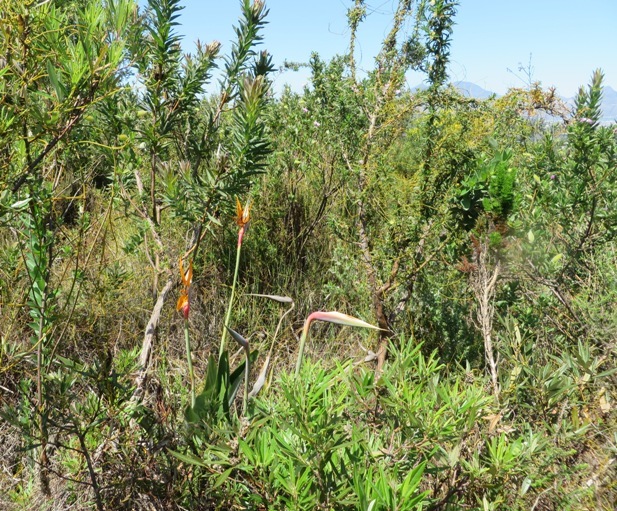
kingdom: Plantae
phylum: Tracheophyta
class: Liliopsida
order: Zingiberales
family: Strelitziaceae
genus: Strelitzia
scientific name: Strelitzia reginae
